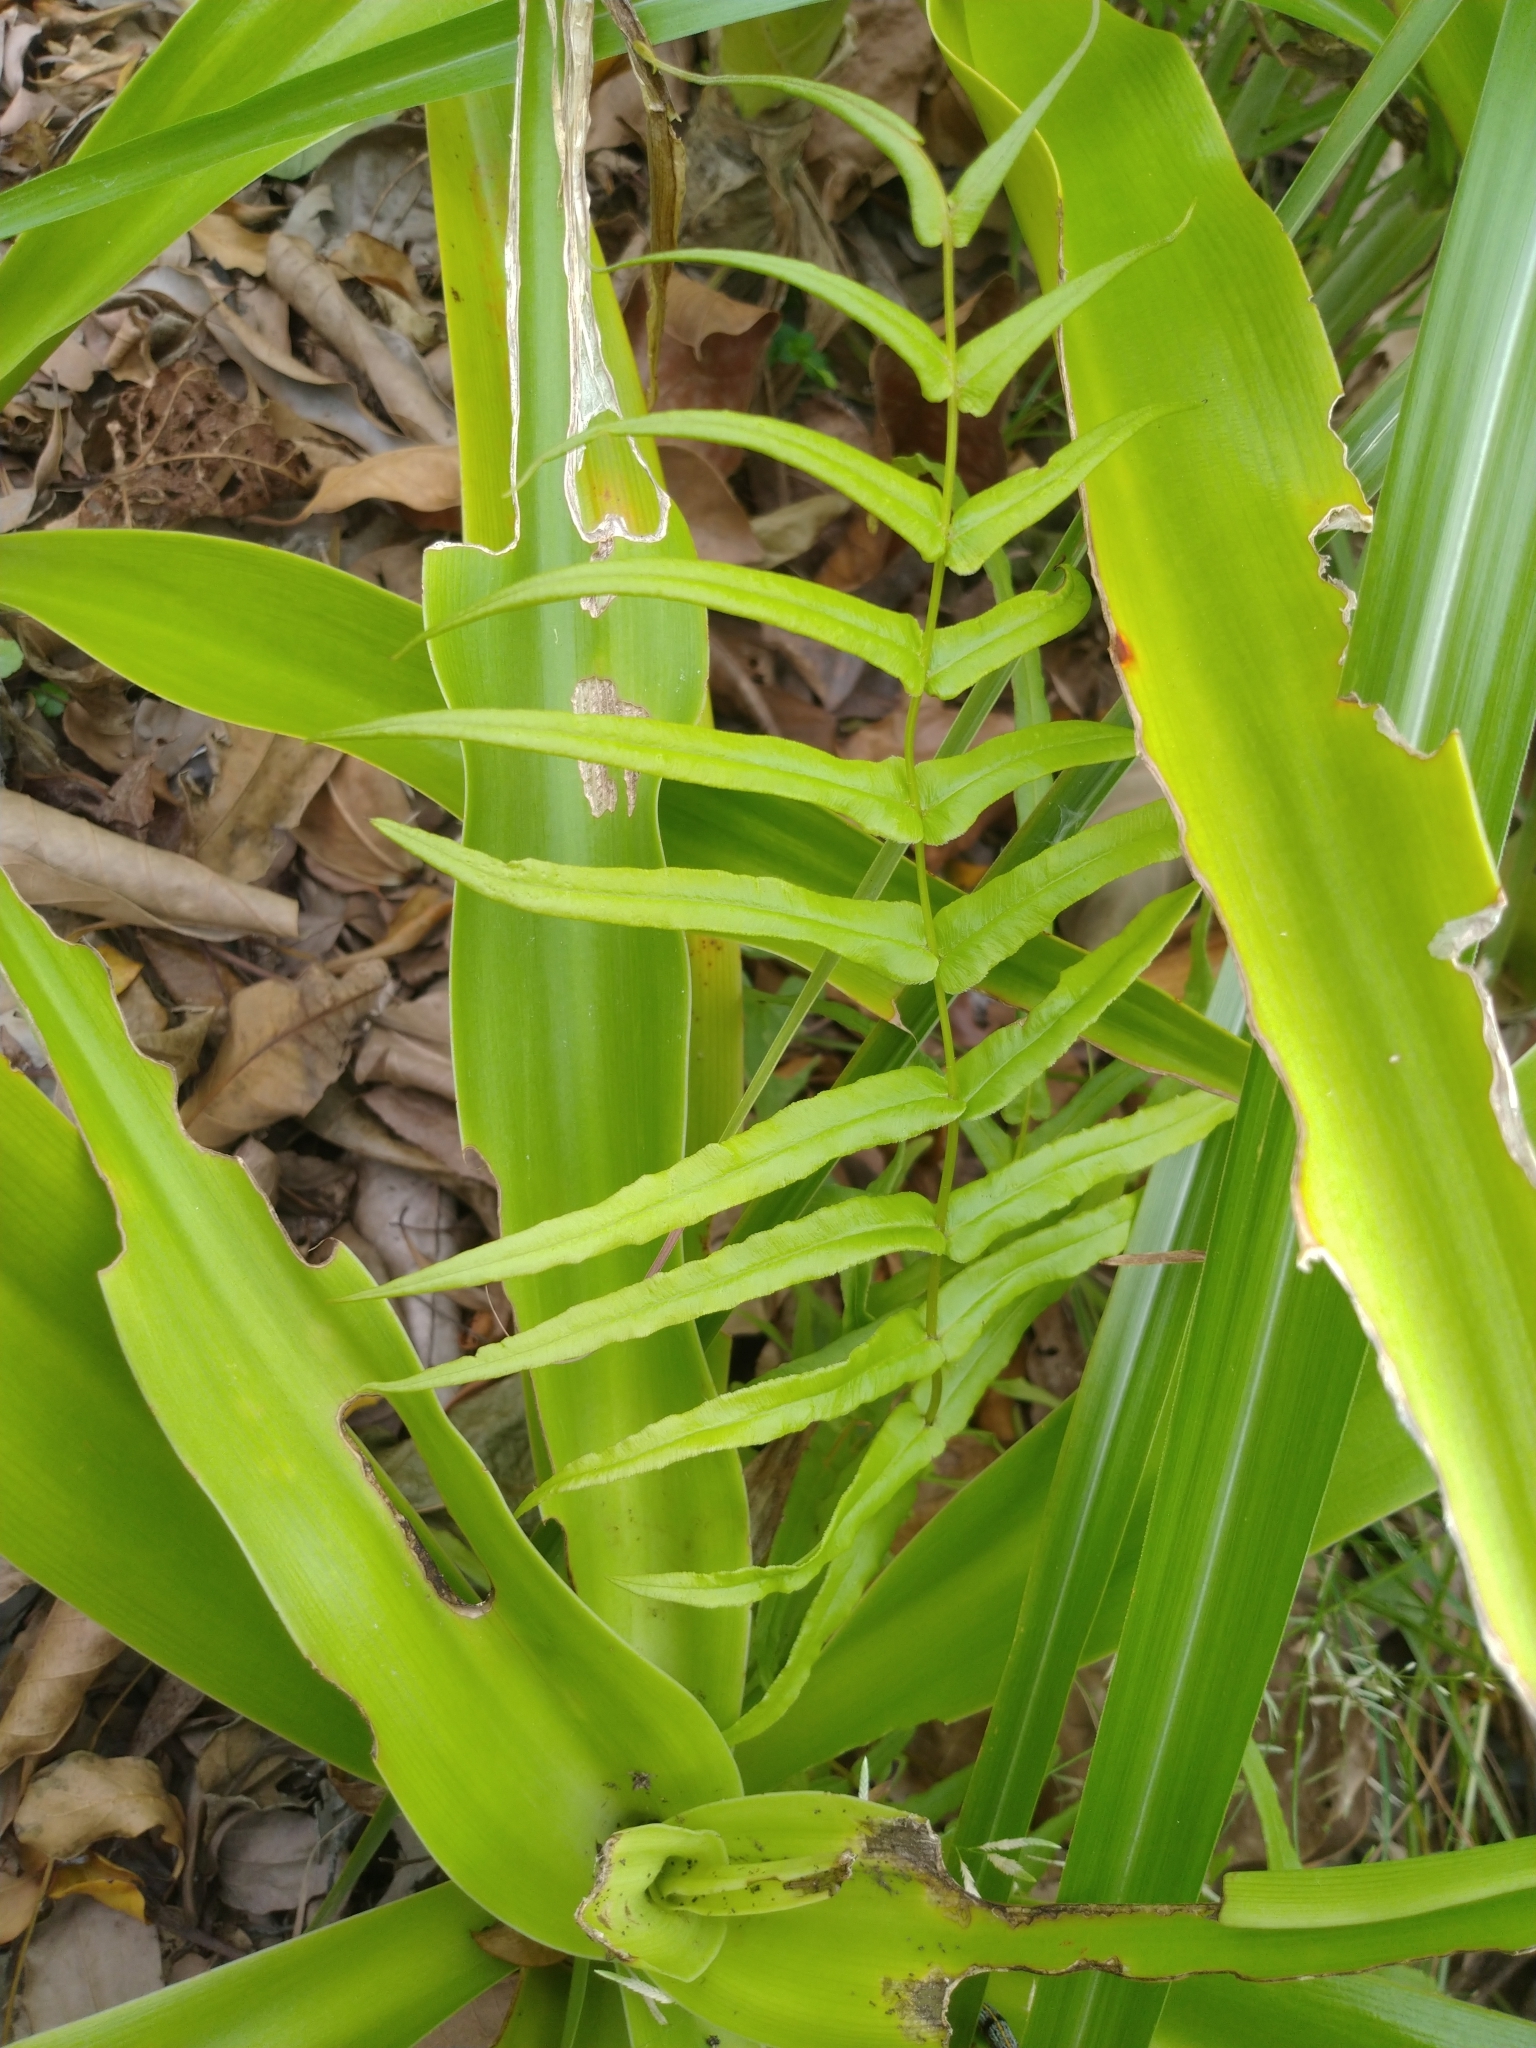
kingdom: Plantae
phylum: Tracheophyta
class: Polypodiopsida
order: Polypodiales
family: Pteridaceae
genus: Pteris
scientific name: Pteris vittata
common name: Ladder brake
